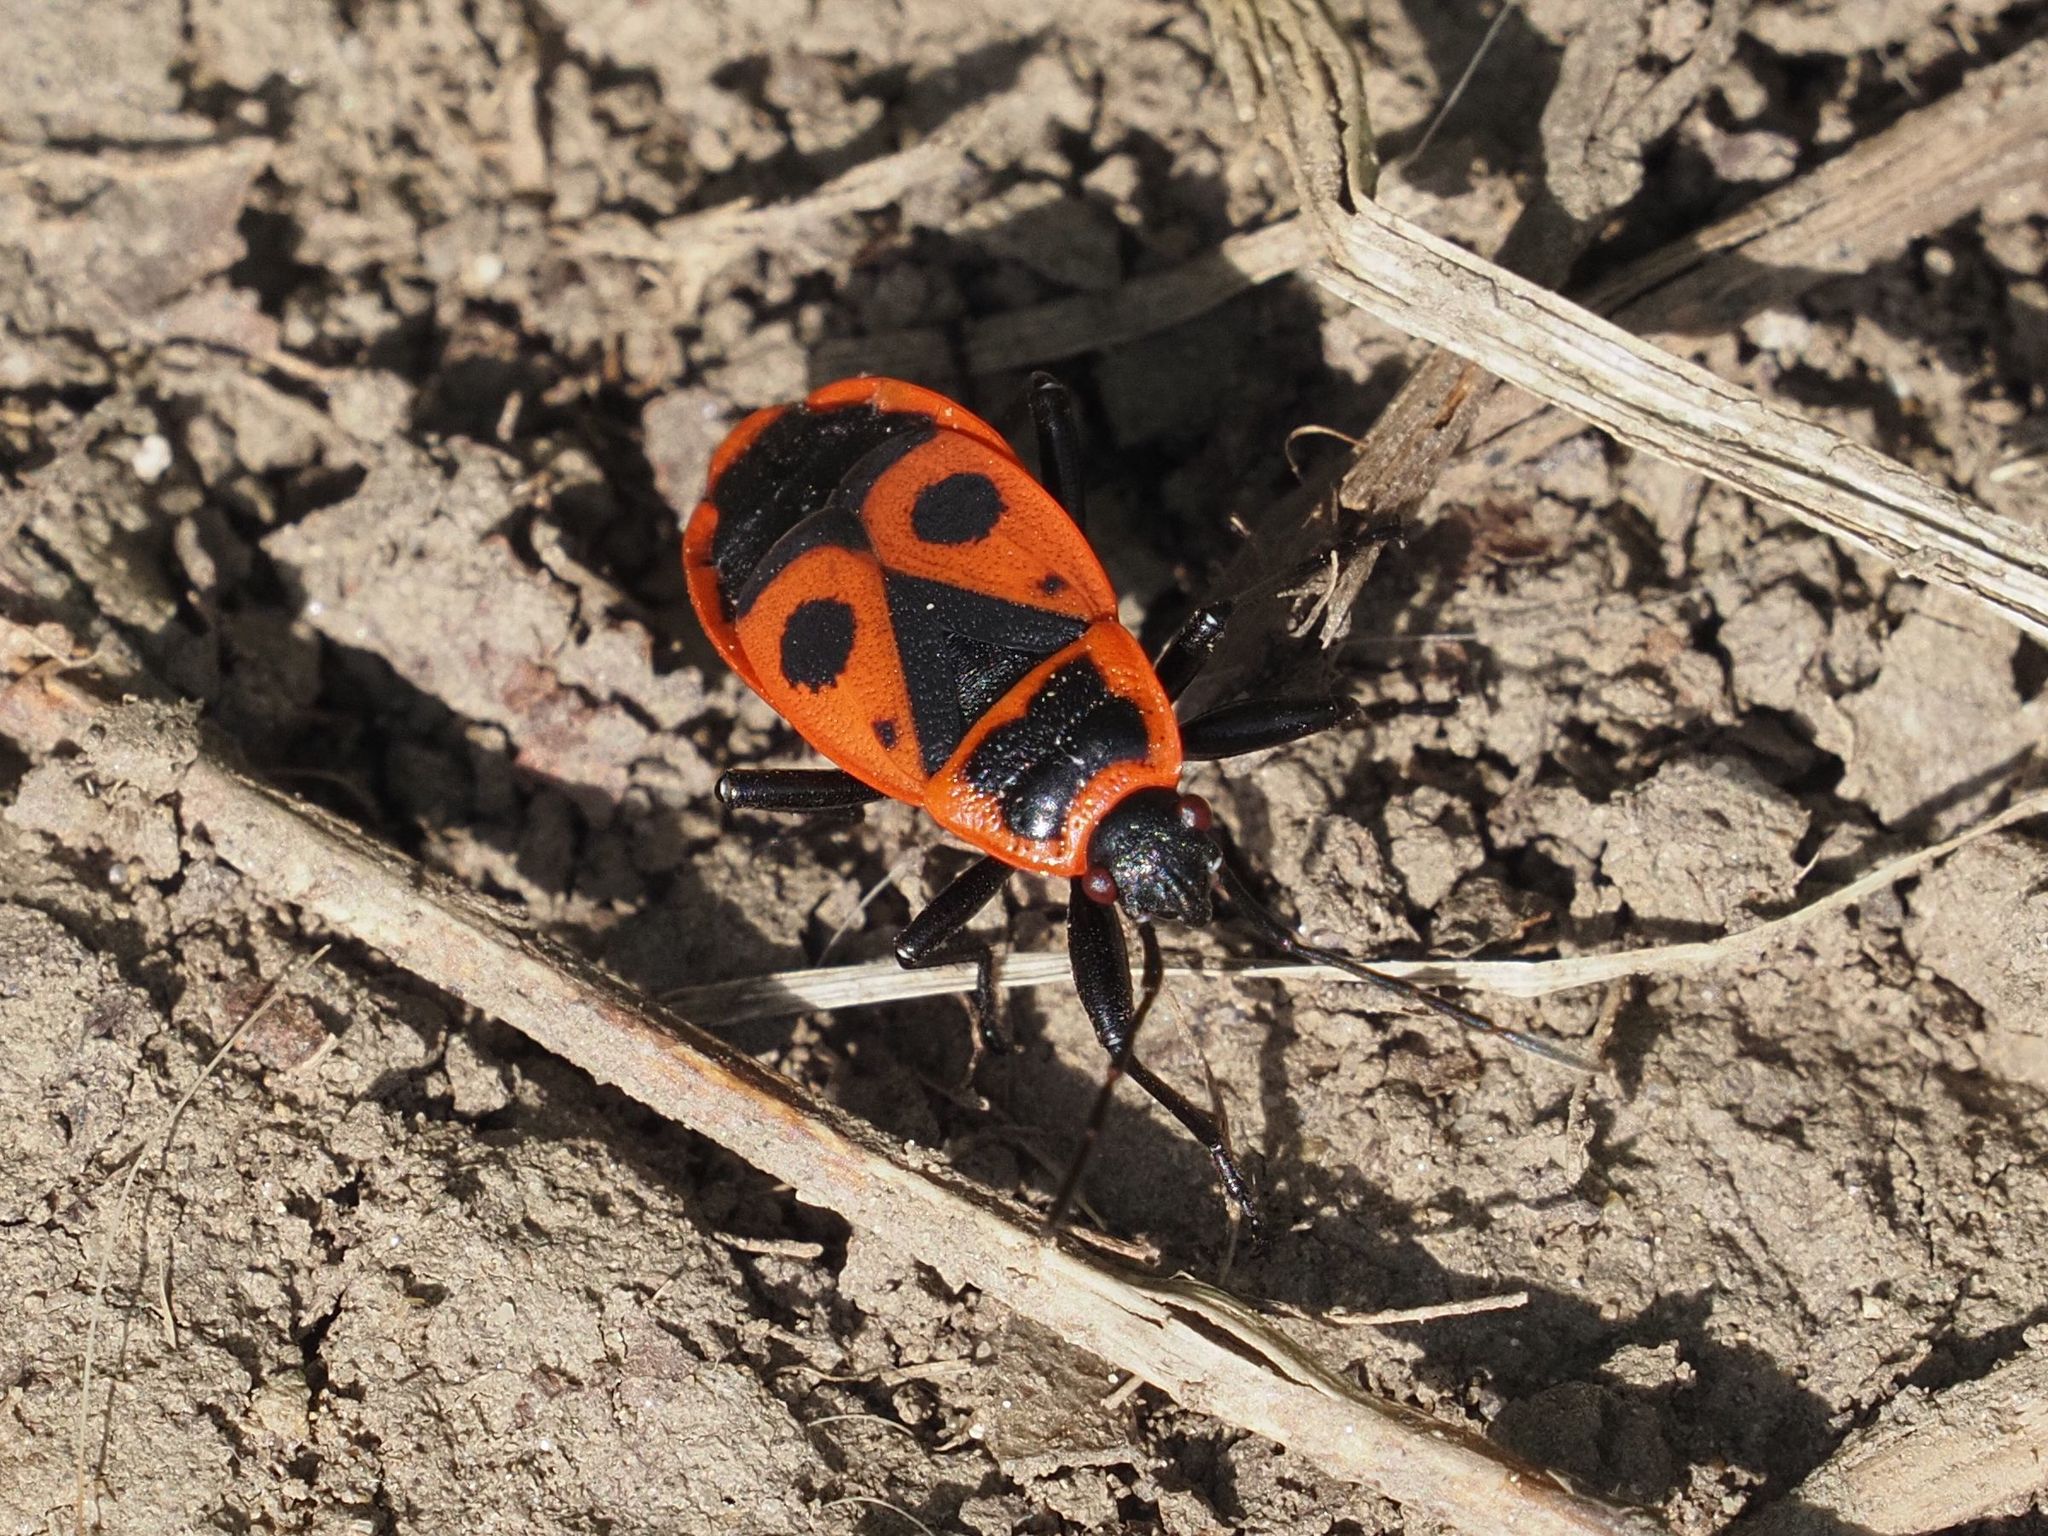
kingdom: Animalia
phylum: Arthropoda
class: Insecta
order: Hemiptera
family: Pyrrhocoridae
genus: Pyrrhocoris
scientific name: Pyrrhocoris apterus
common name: Firebug
